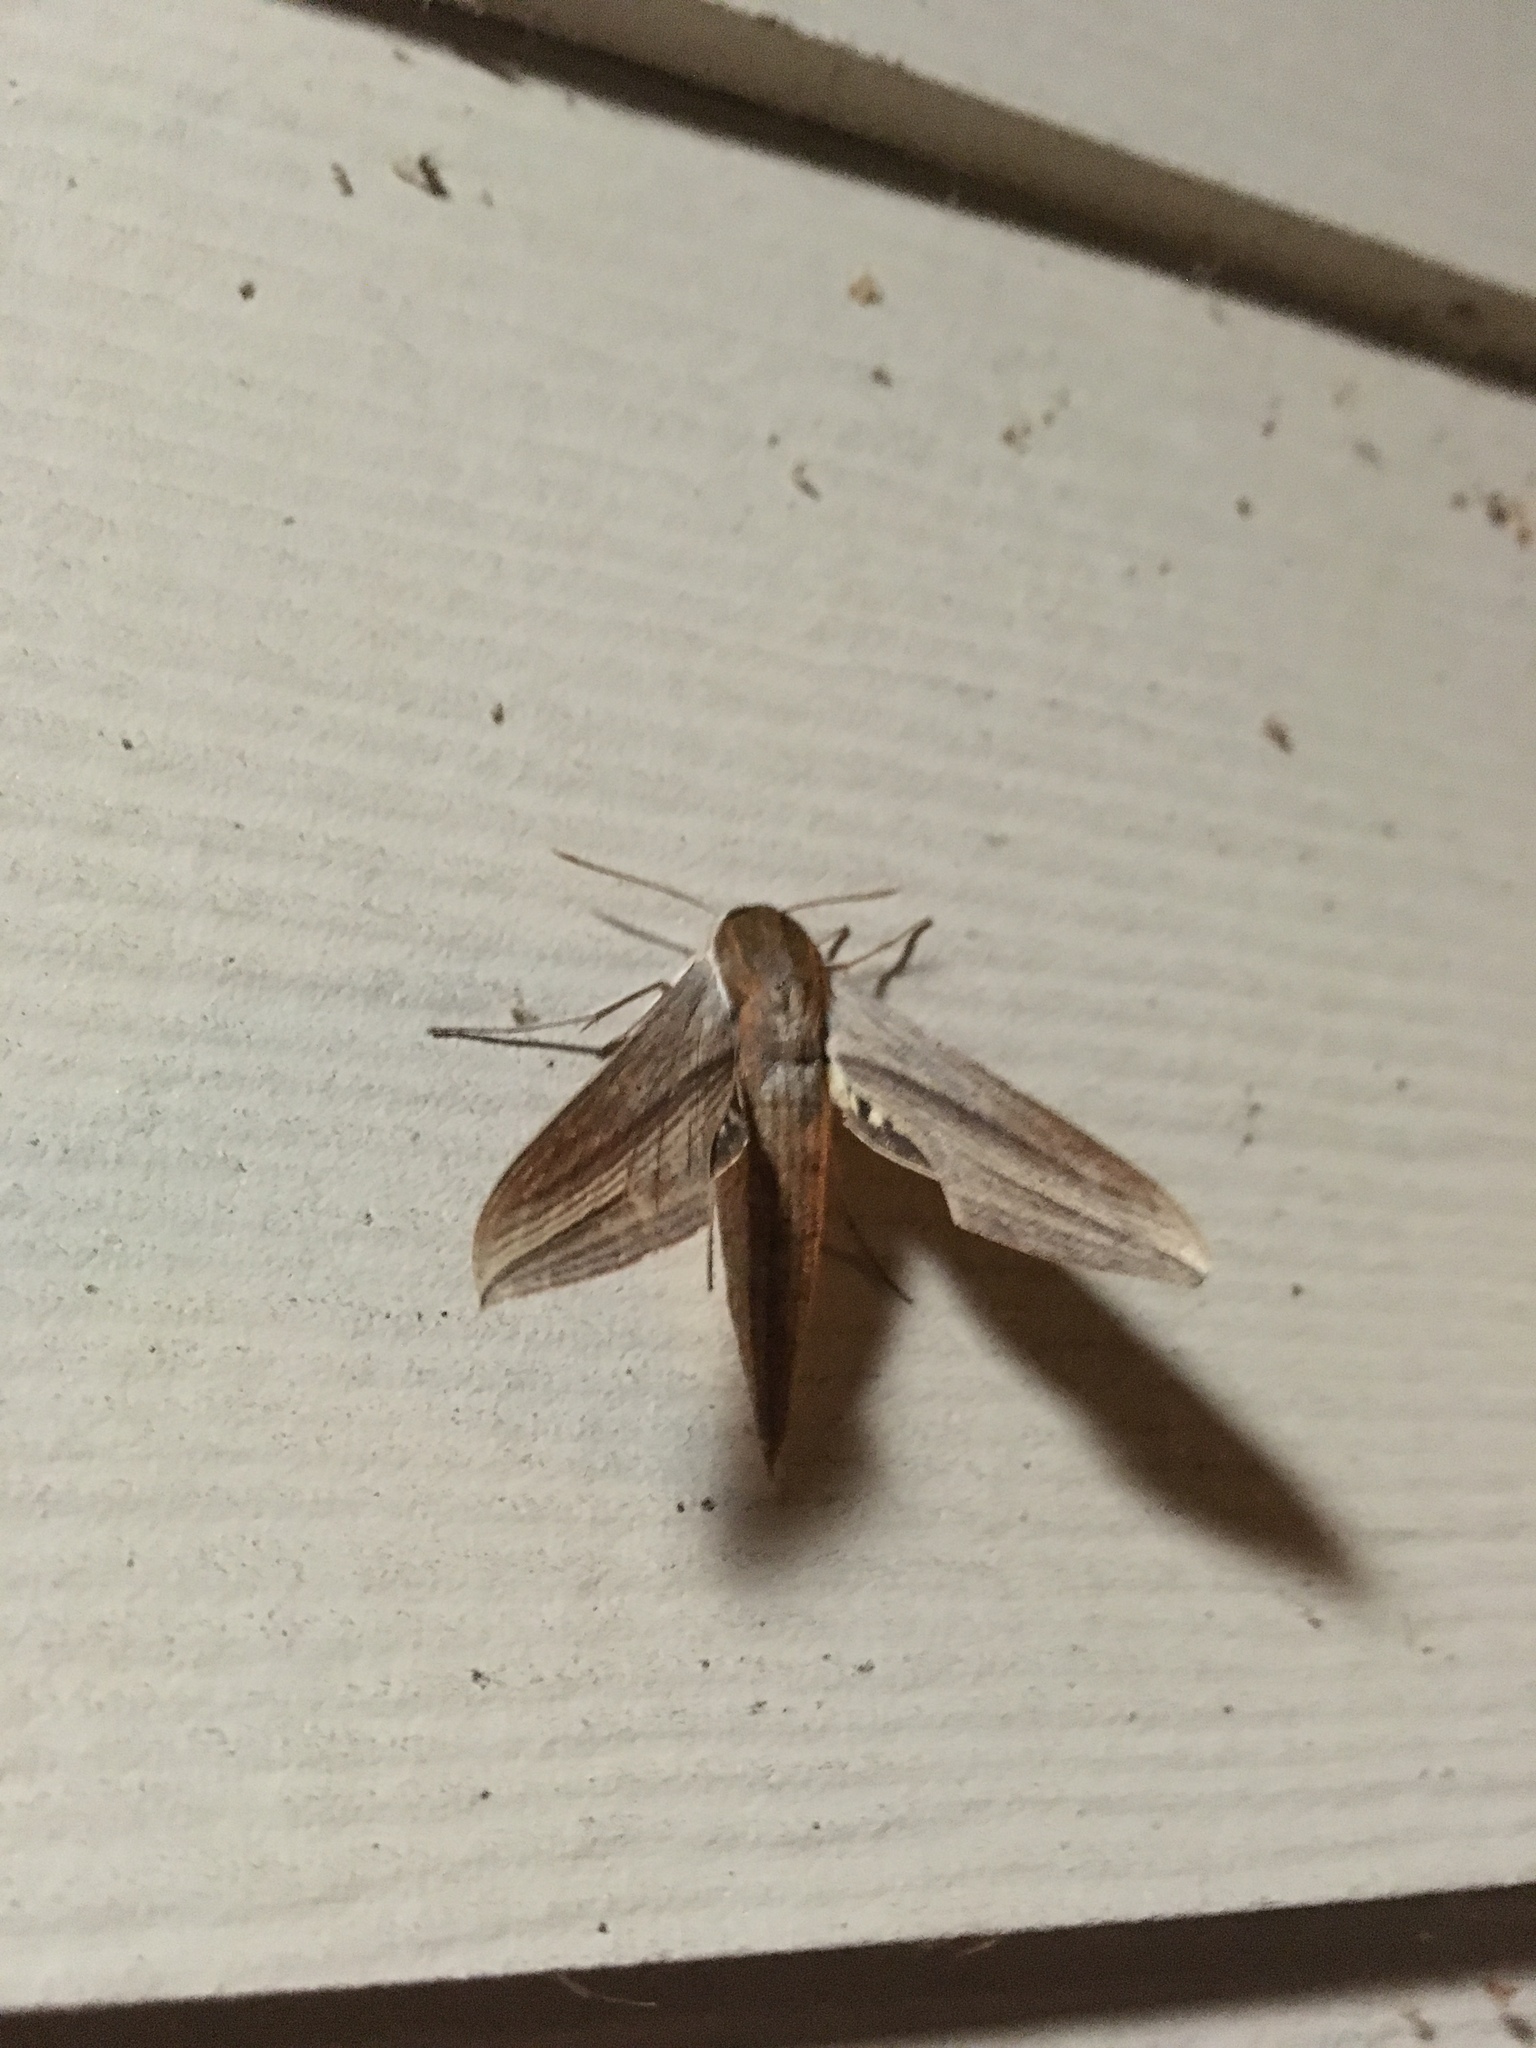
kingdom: Animalia
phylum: Arthropoda
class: Insecta
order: Lepidoptera
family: Sphingidae
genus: Xylophanes
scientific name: Xylophanes tersa
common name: Tersa sphinx
